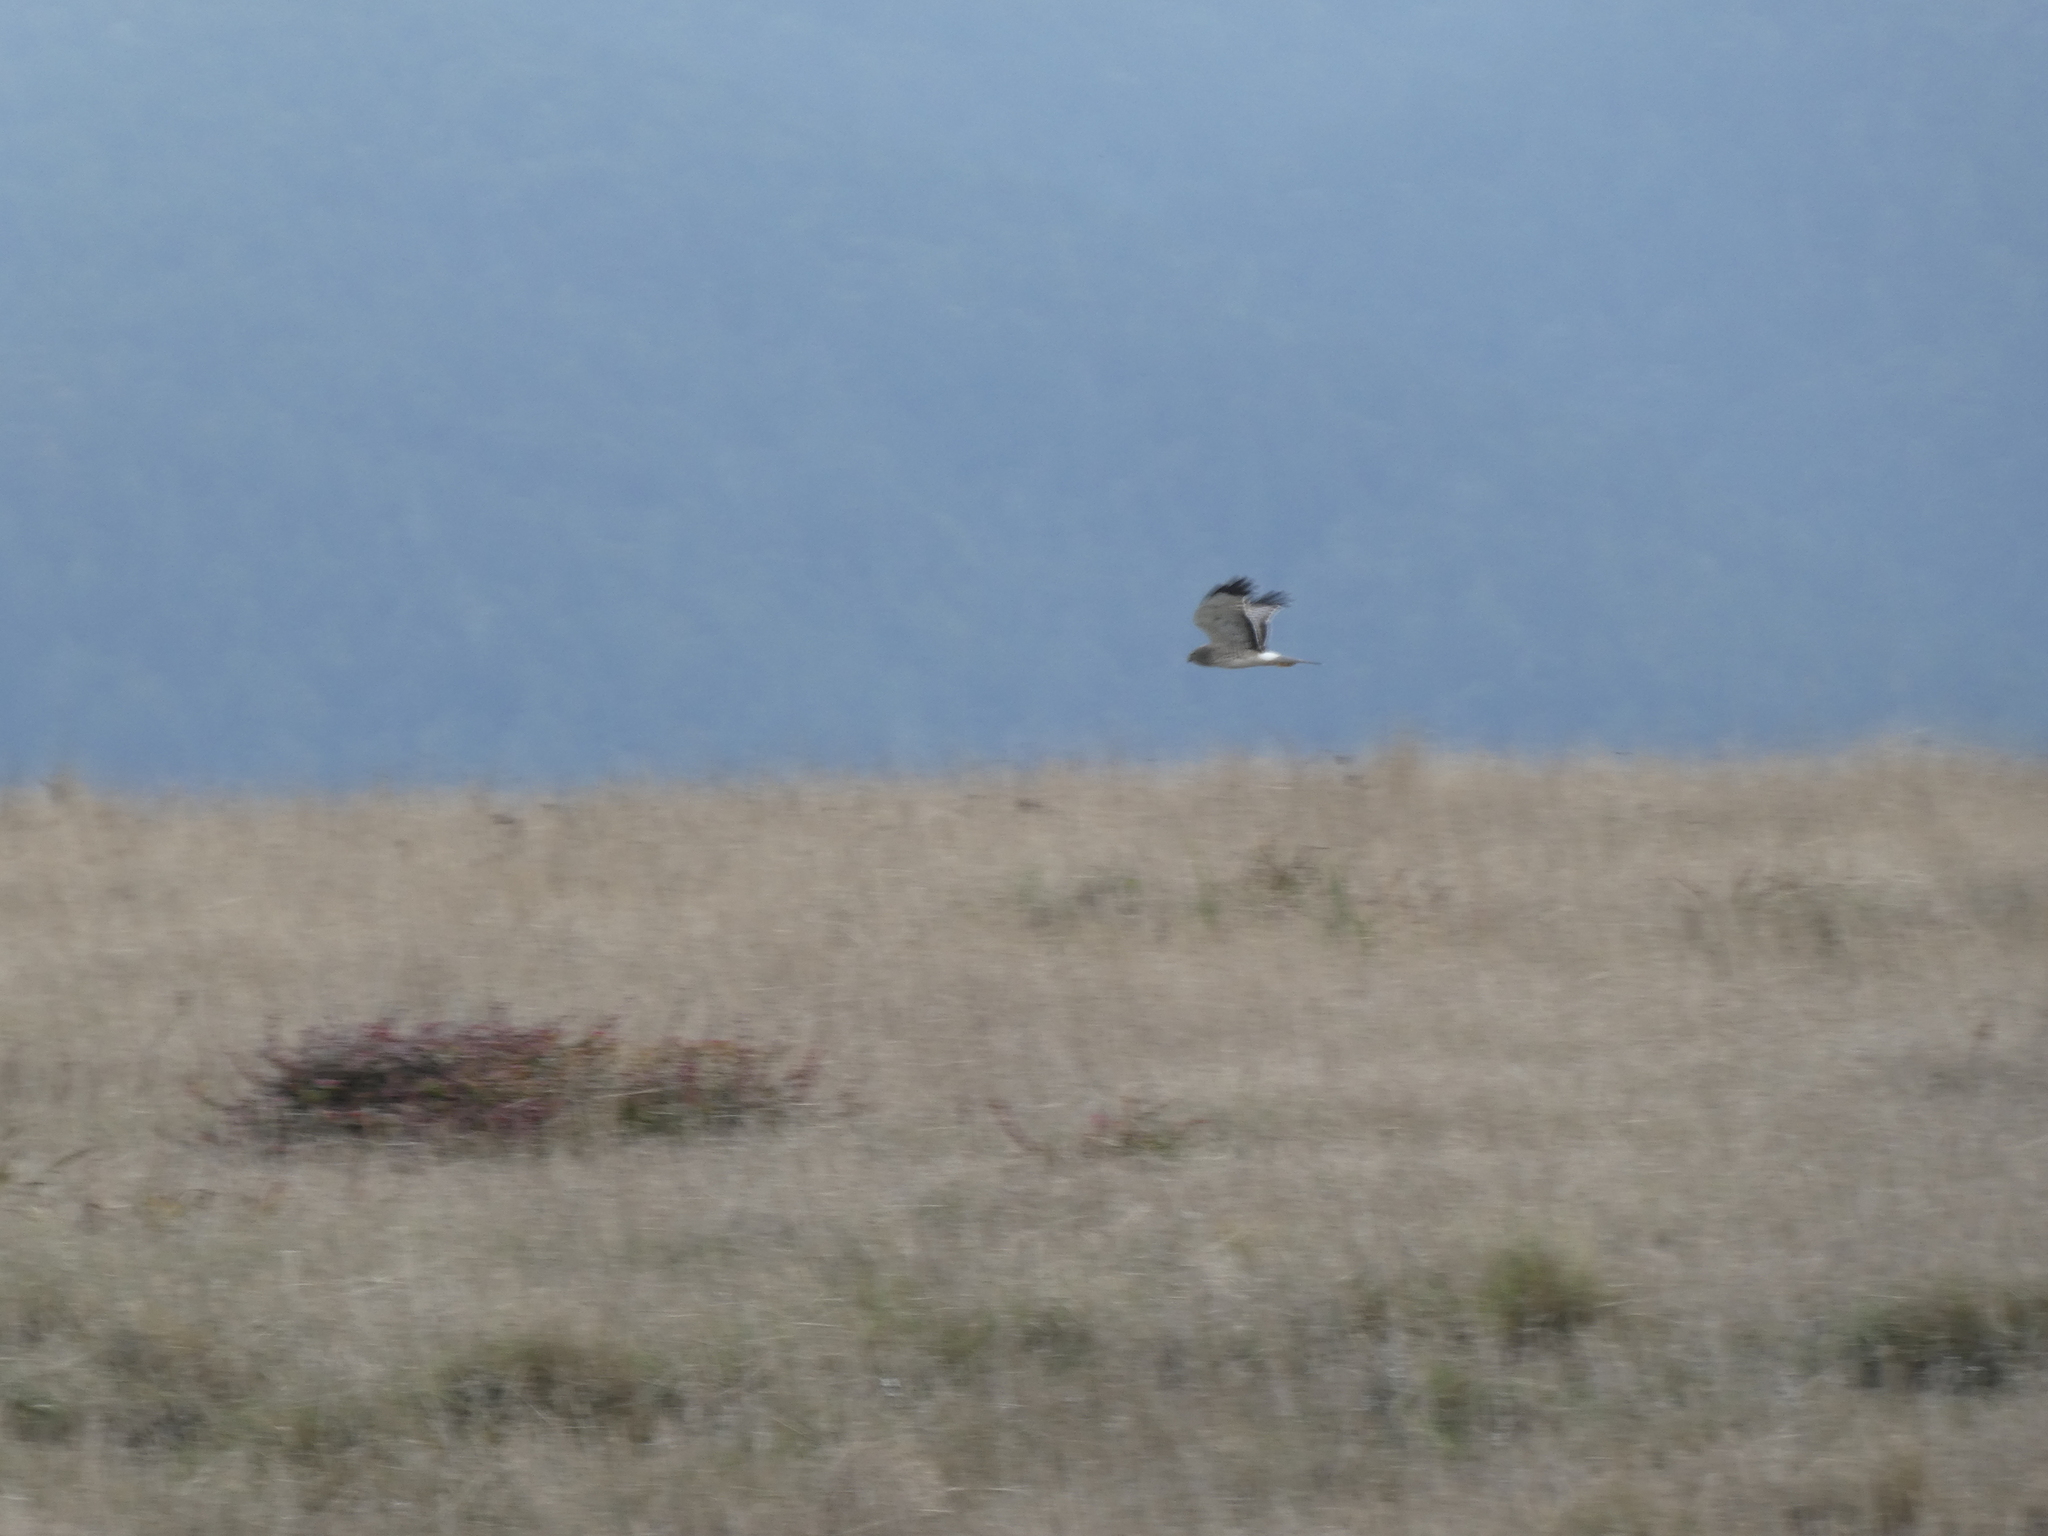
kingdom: Animalia
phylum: Chordata
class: Aves
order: Accipitriformes
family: Accipitridae
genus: Circus
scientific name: Circus cyaneus
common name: Hen harrier
